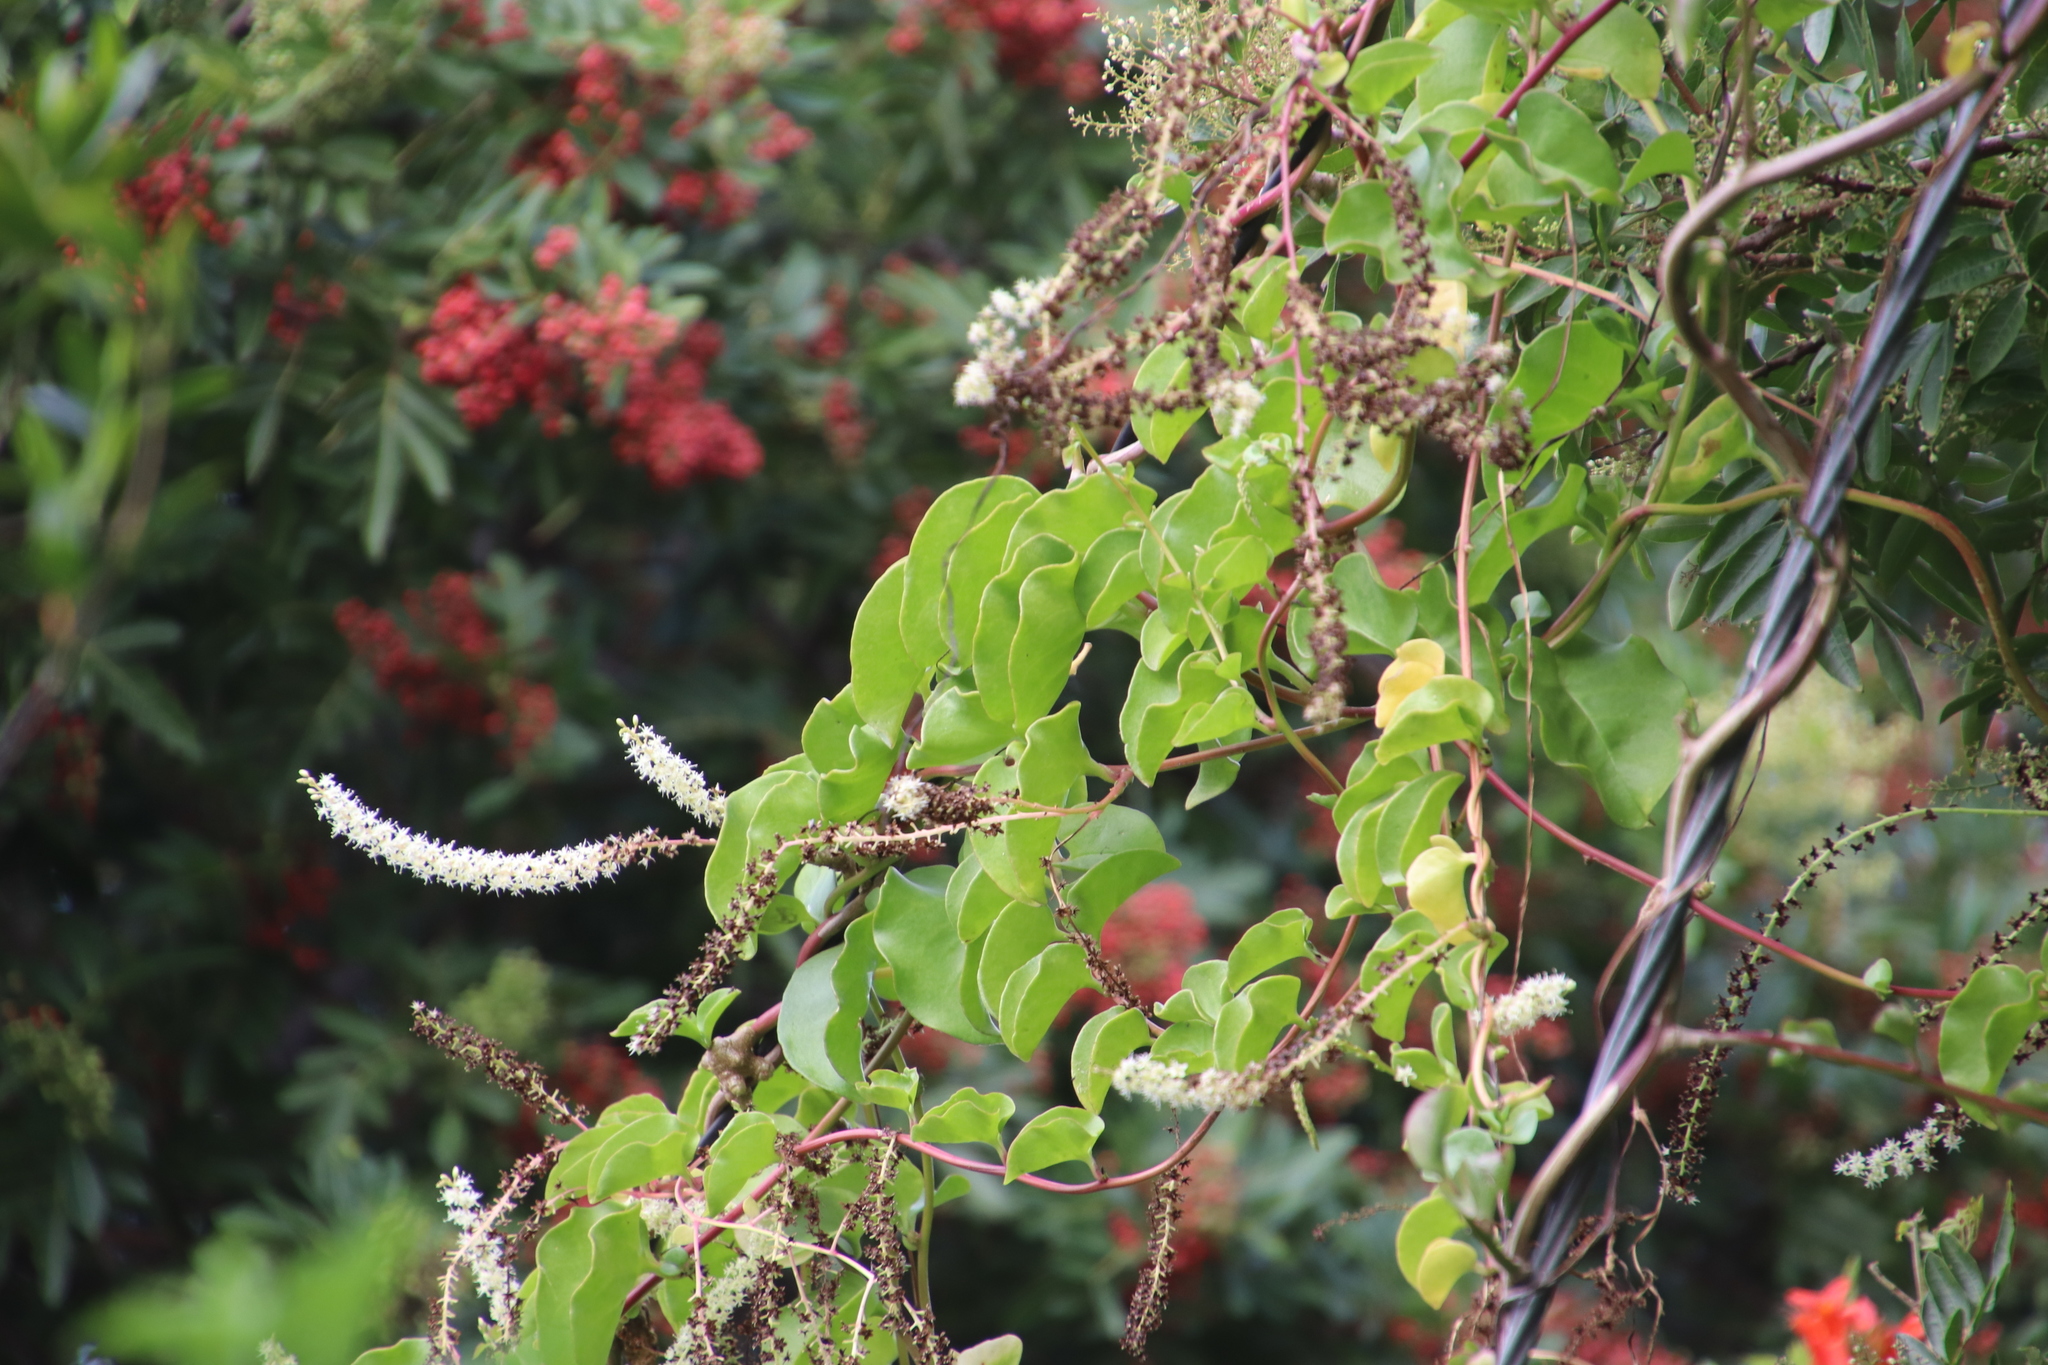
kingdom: Plantae
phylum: Tracheophyta
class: Magnoliopsida
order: Caryophyllales
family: Basellaceae
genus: Anredera
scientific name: Anredera cordifolia
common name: Heartleaf madeiravine
